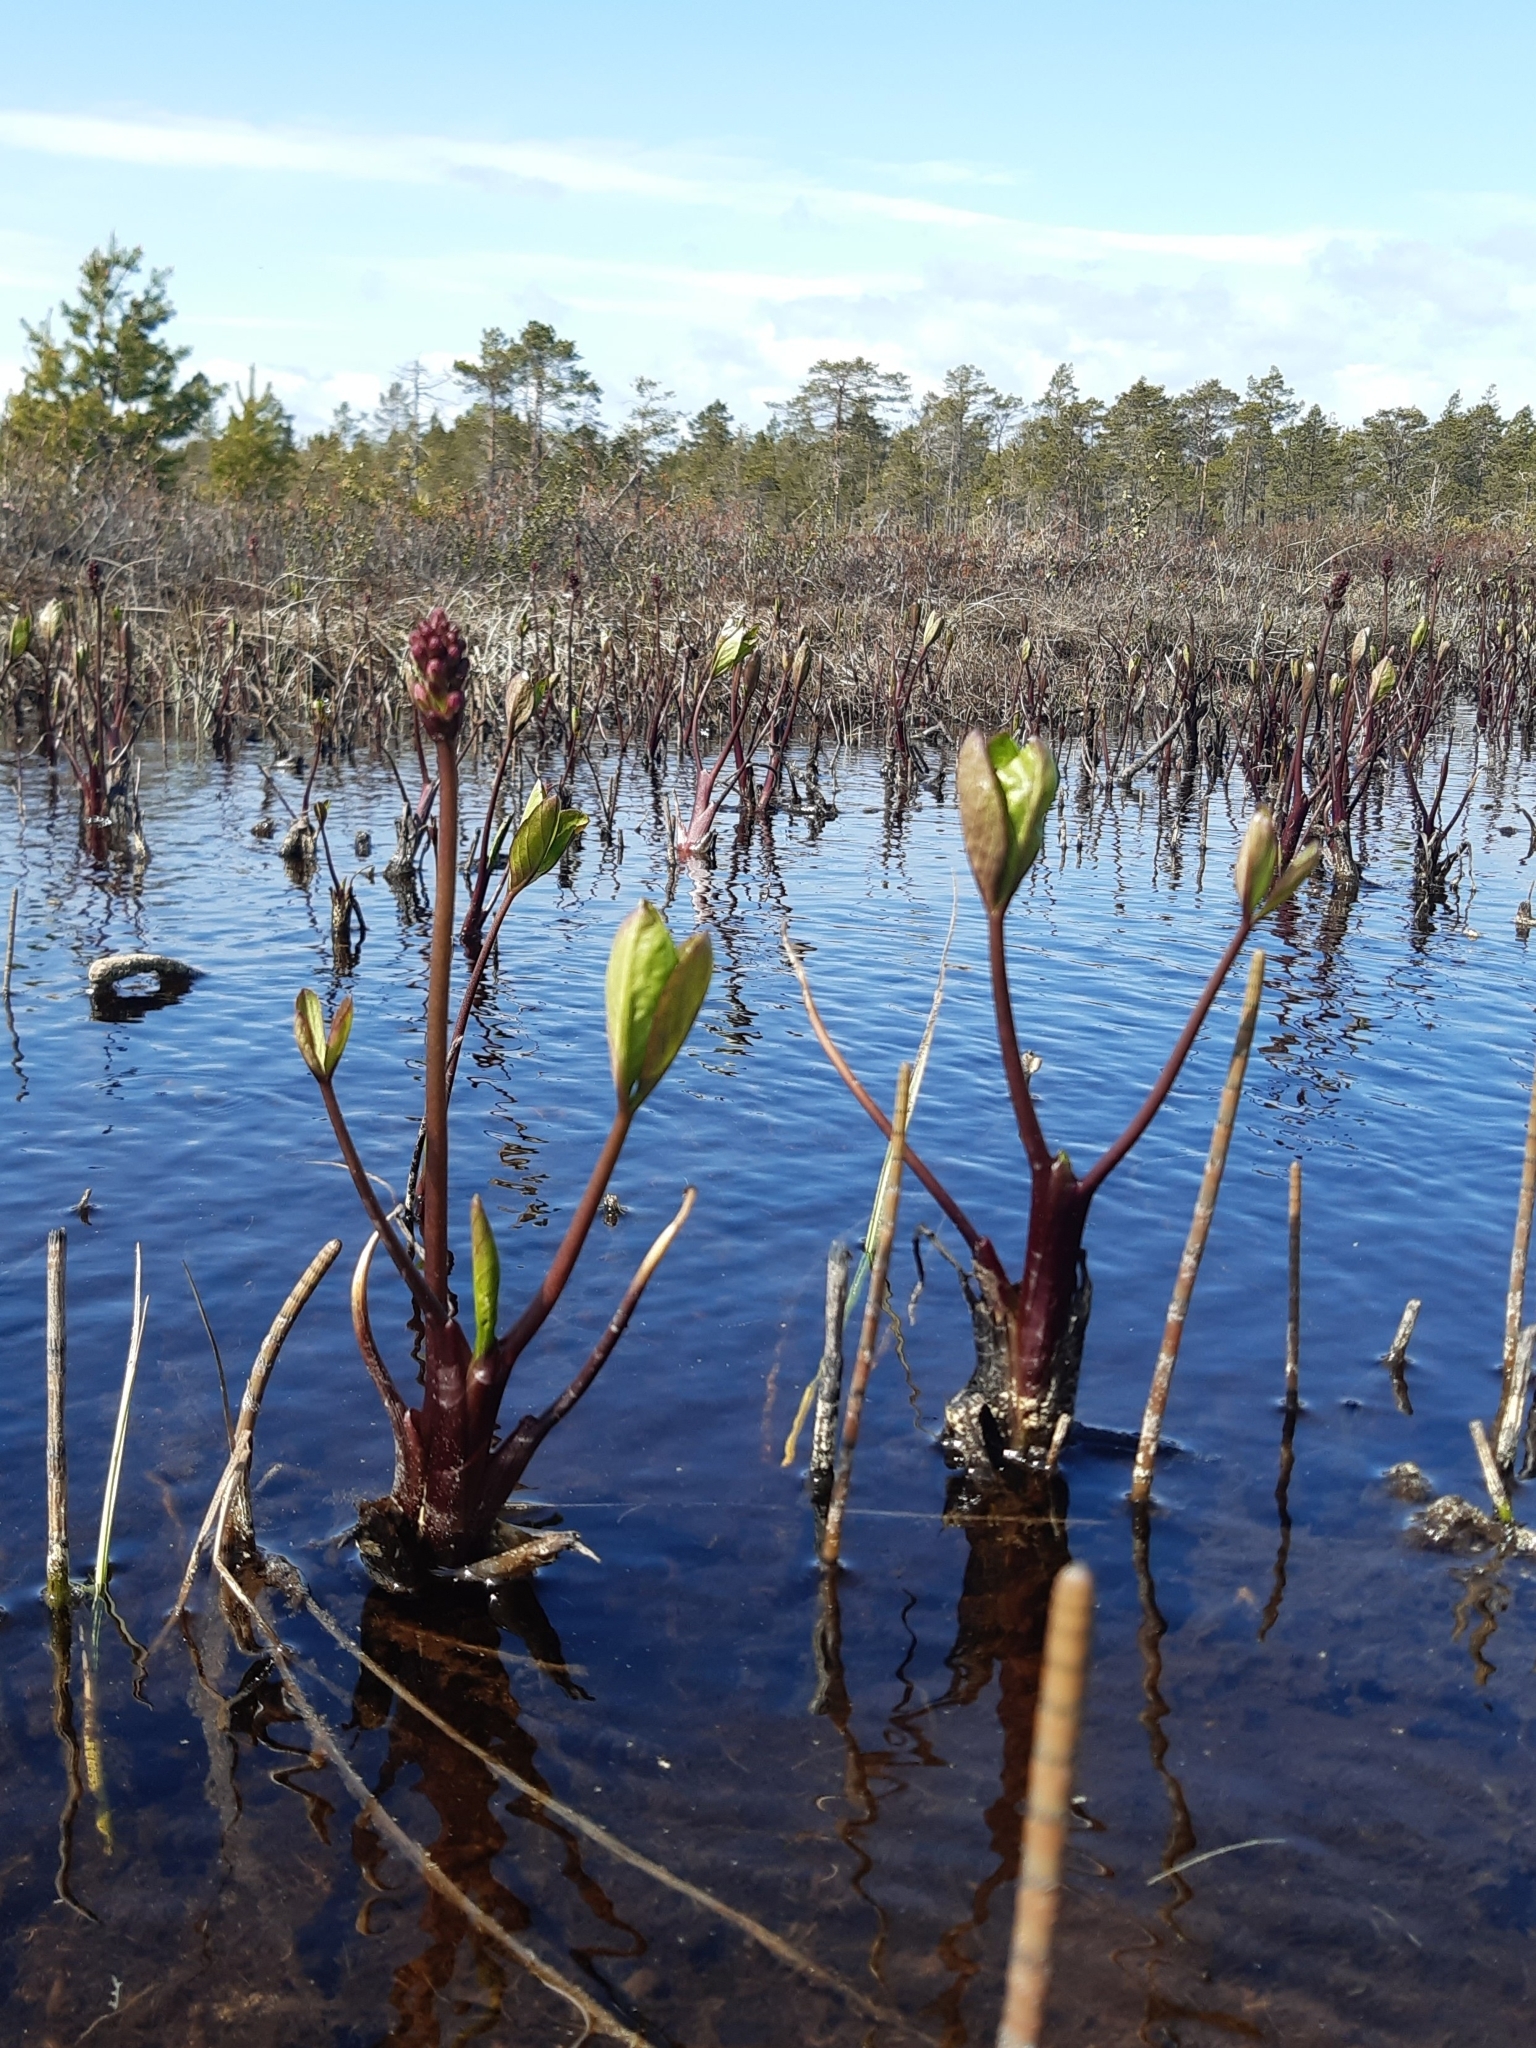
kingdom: Plantae
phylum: Tracheophyta
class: Magnoliopsida
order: Asterales
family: Menyanthaceae
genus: Menyanthes
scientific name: Menyanthes trifoliata
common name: Bogbean
